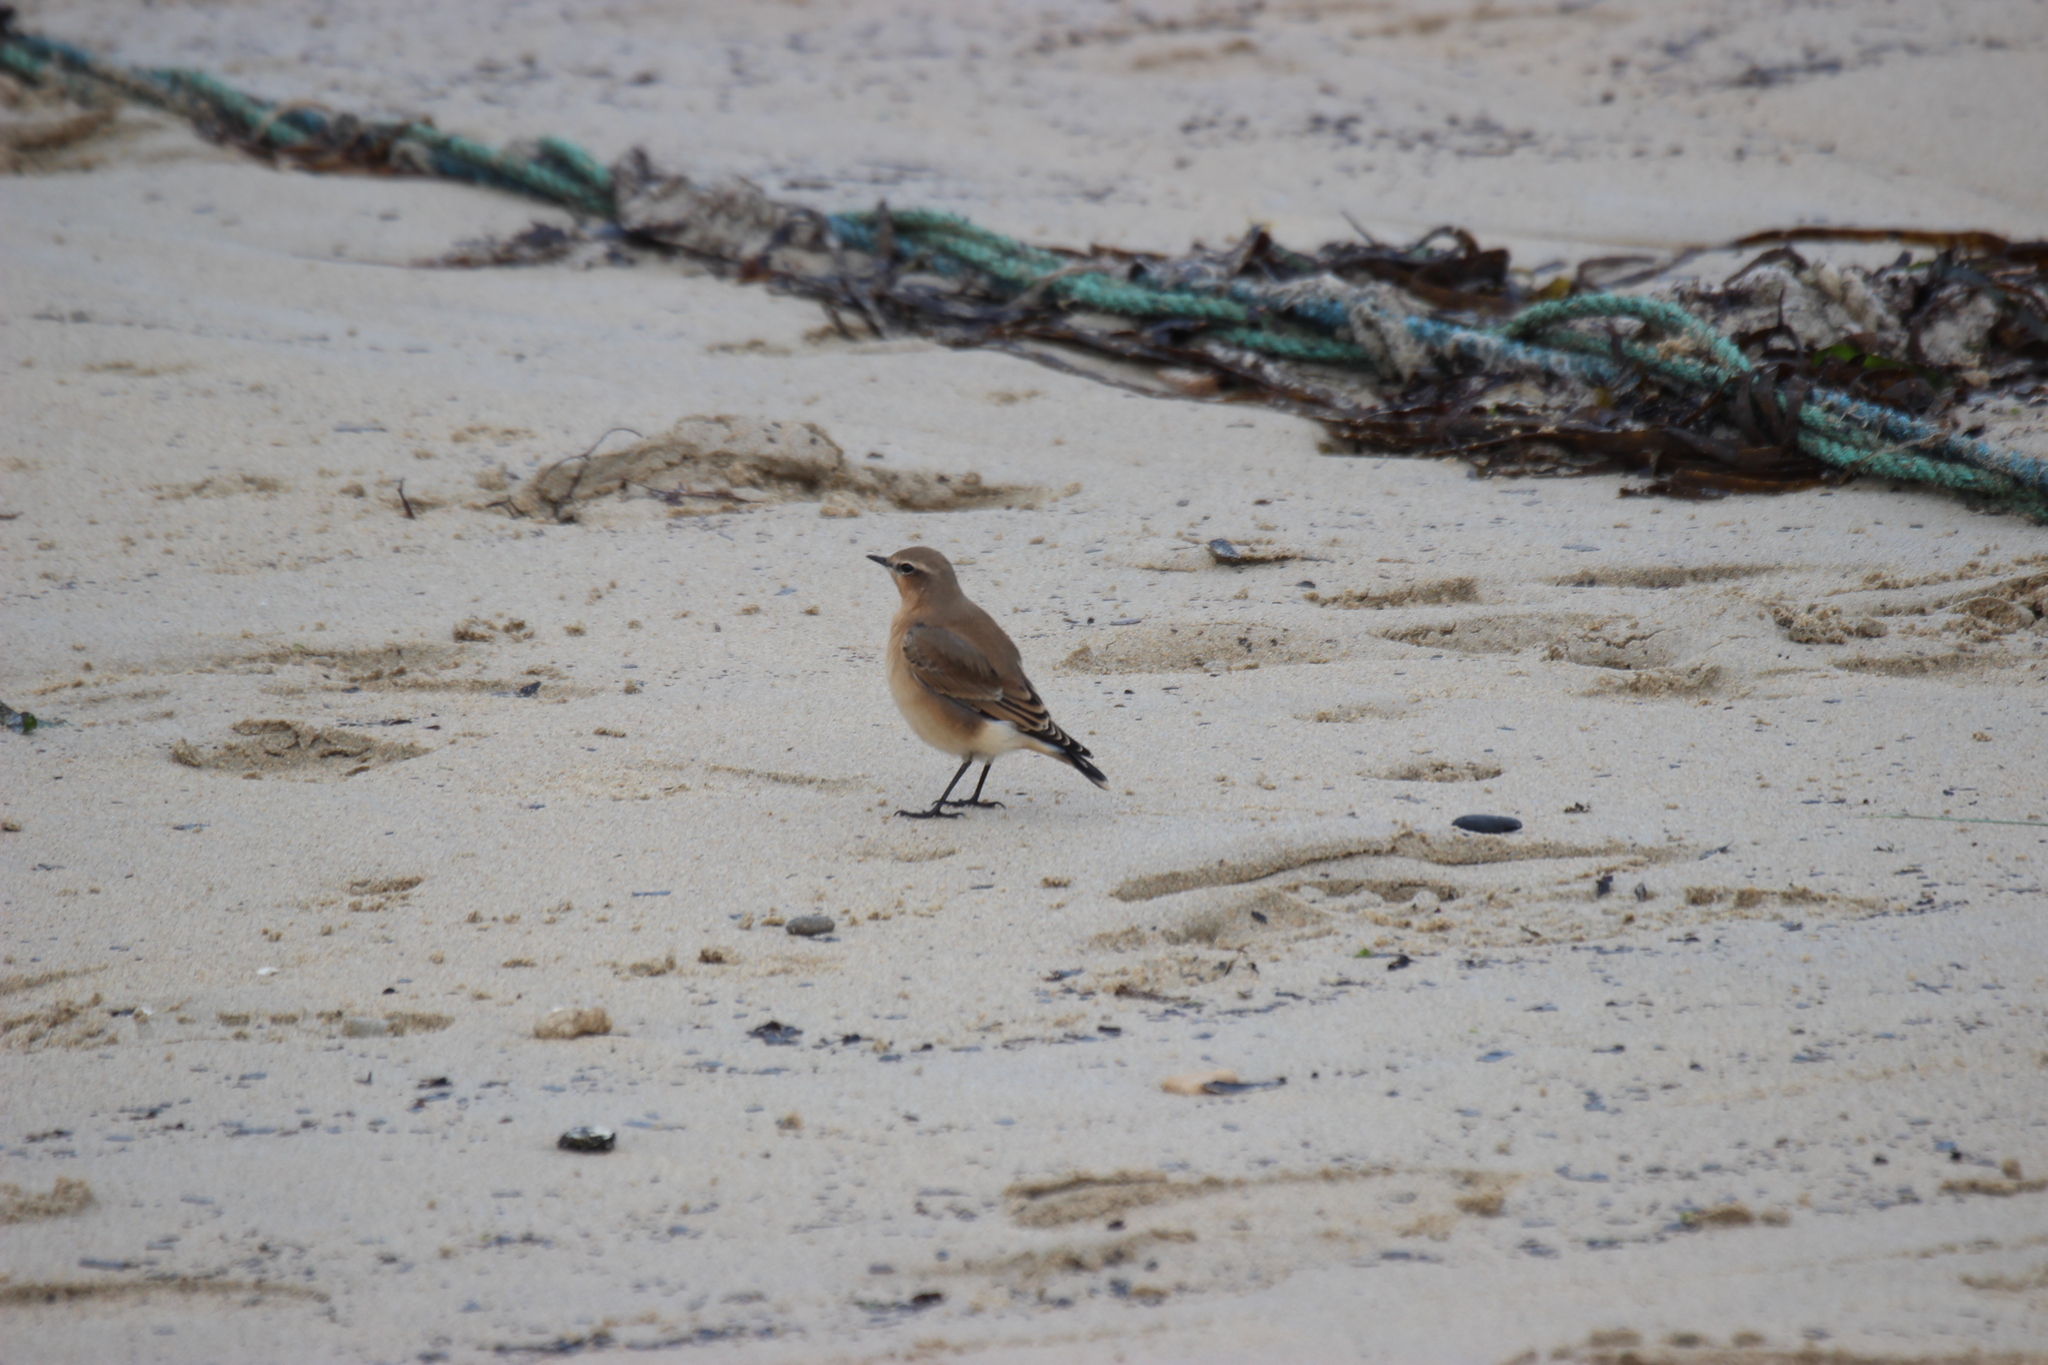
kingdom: Animalia
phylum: Chordata
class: Aves
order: Passeriformes
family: Muscicapidae
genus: Oenanthe
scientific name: Oenanthe oenanthe
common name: Northern wheatear
